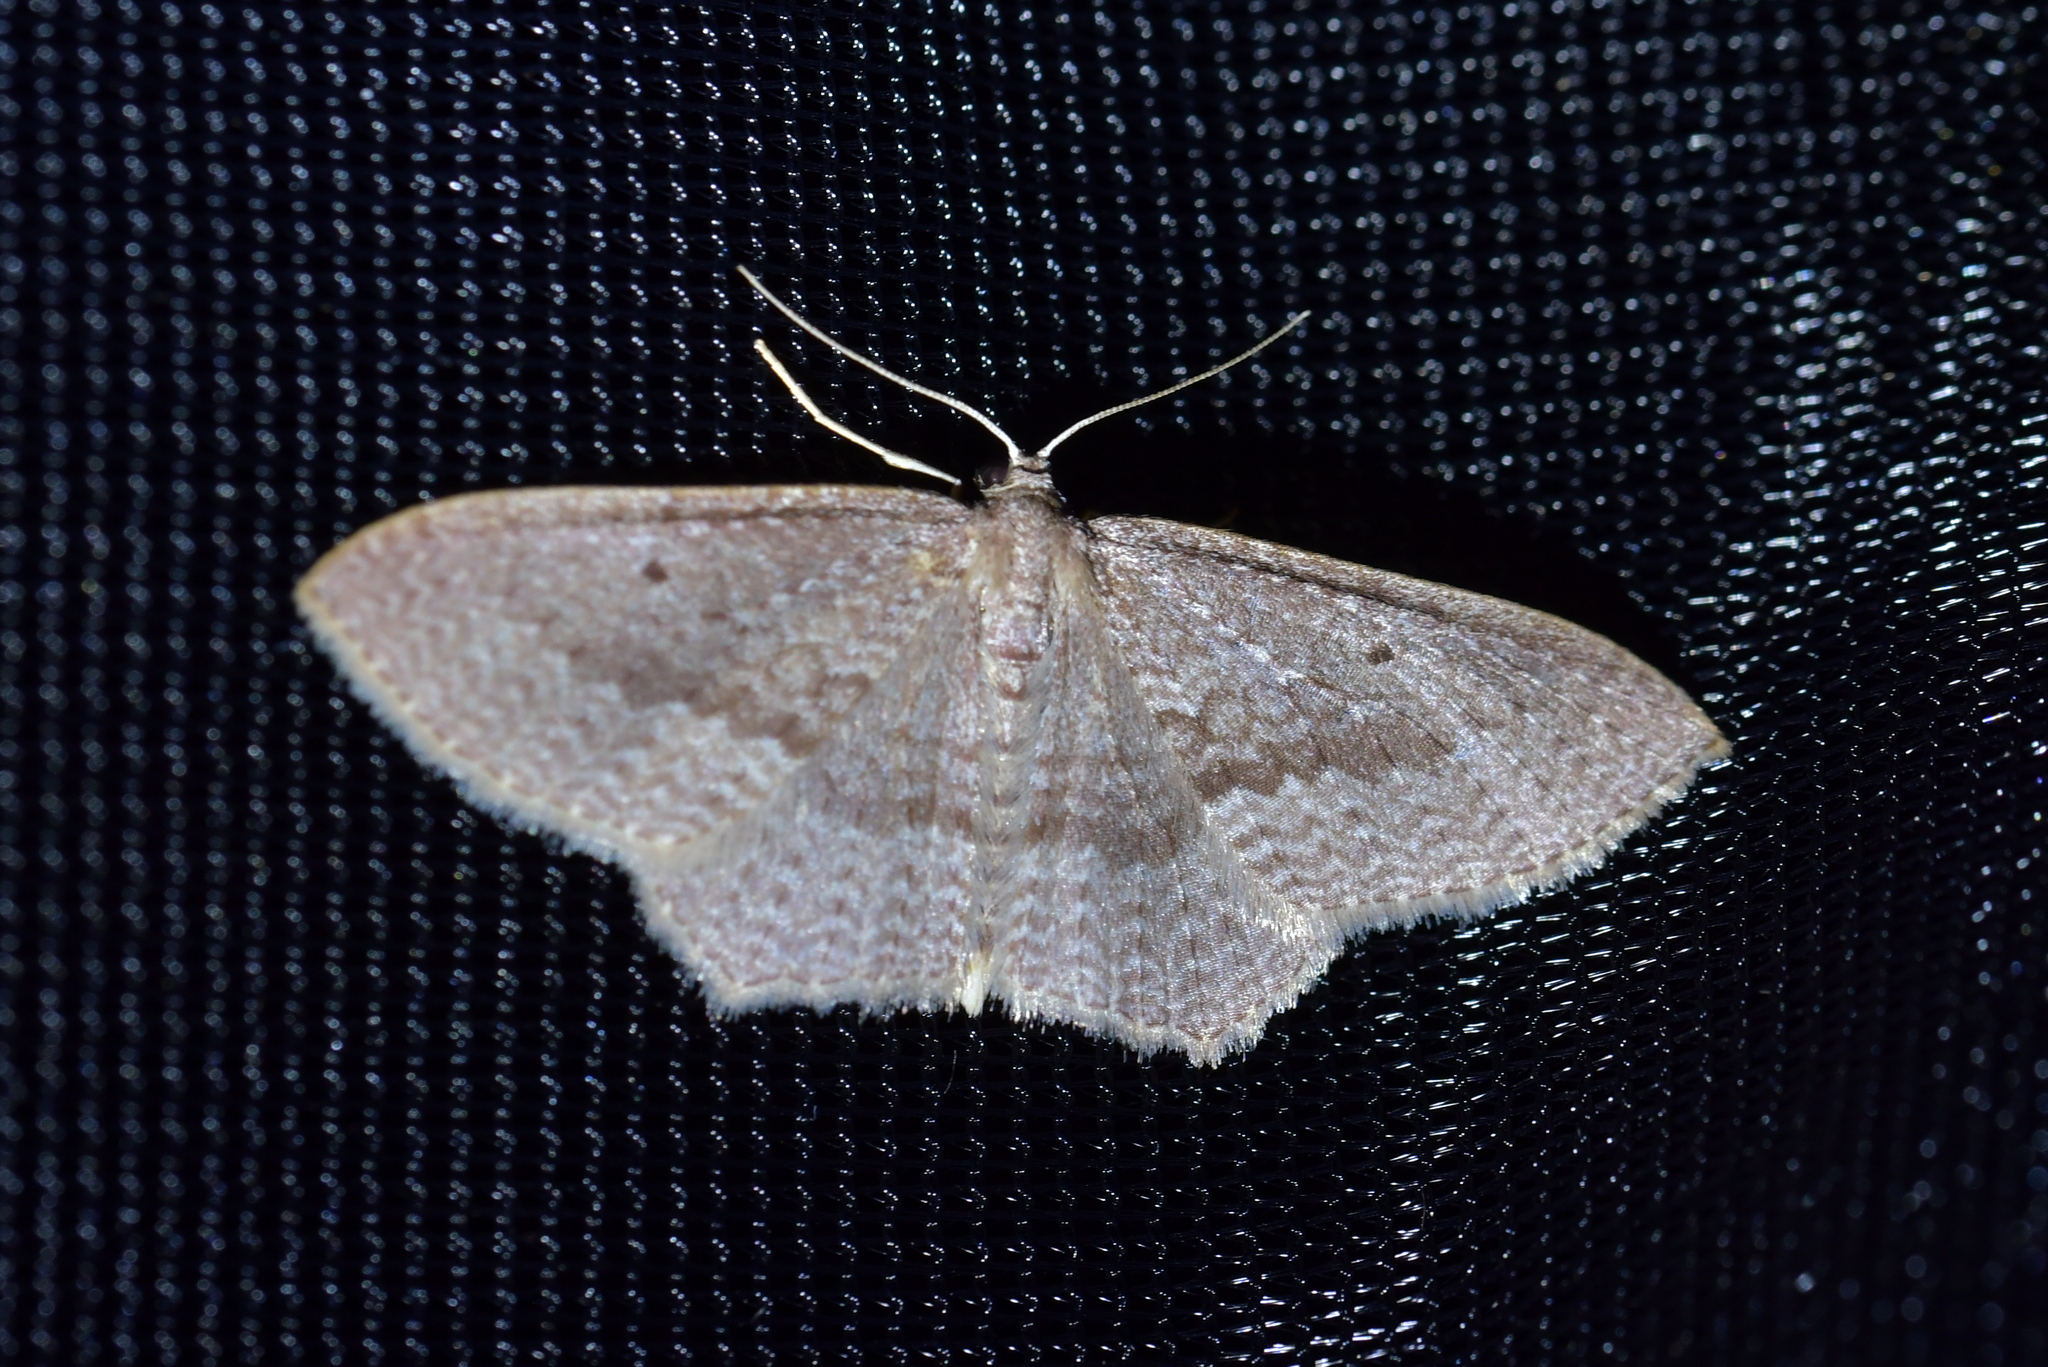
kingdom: Animalia
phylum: Arthropoda
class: Insecta
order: Lepidoptera
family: Geometridae
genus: Poecilasthena
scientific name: Poecilasthena subpurpureata
